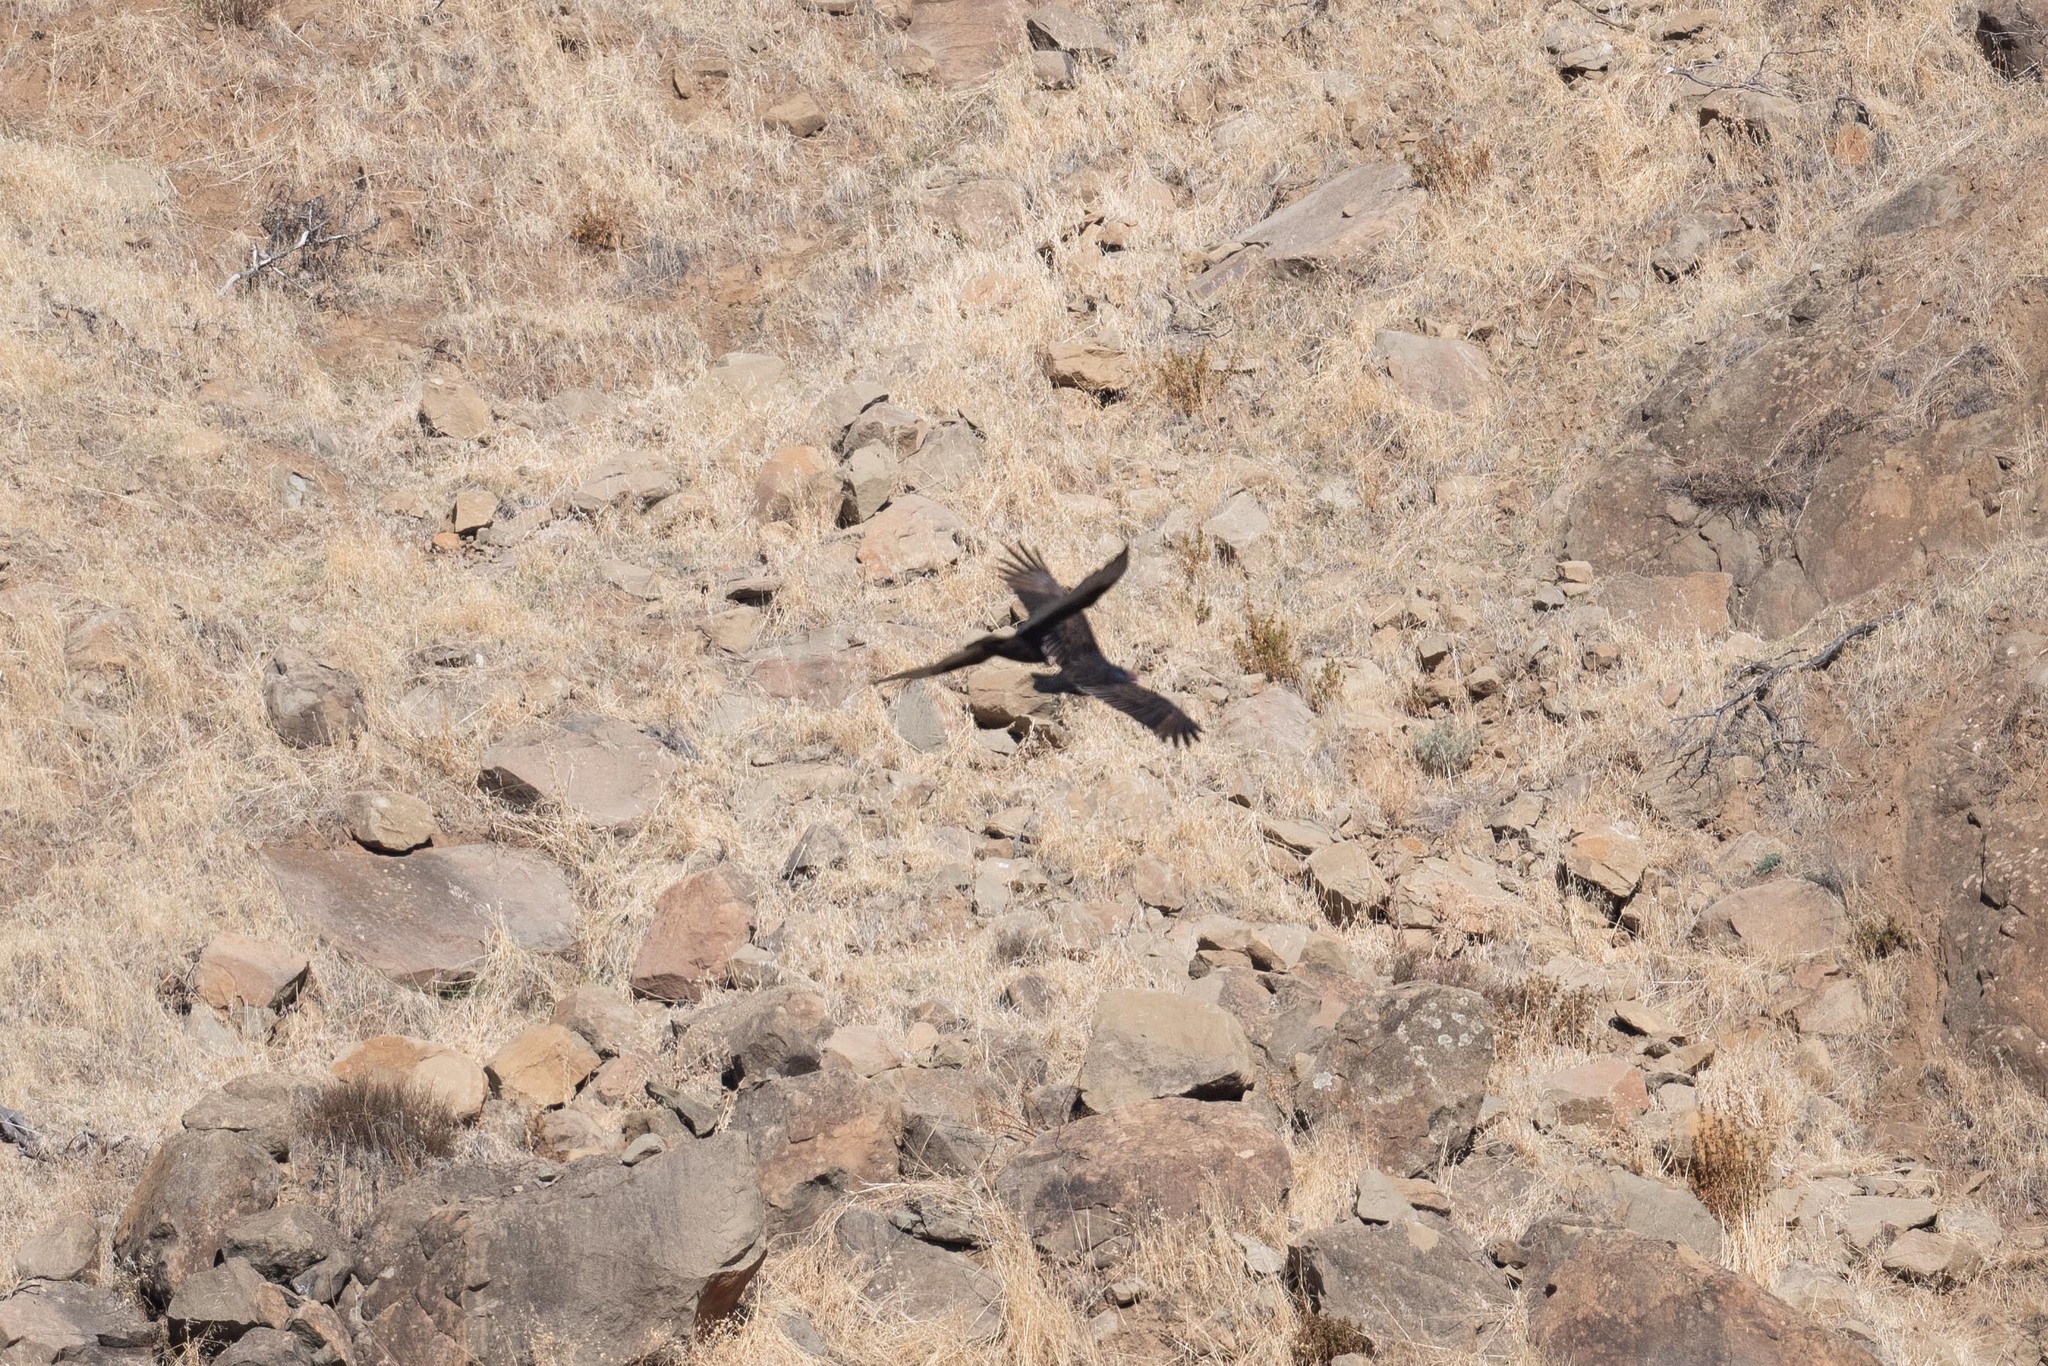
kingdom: Animalia
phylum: Chordata
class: Aves
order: Accipitriformes
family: Cathartidae
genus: Cathartes
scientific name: Cathartes aura
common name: Turkey vulture
